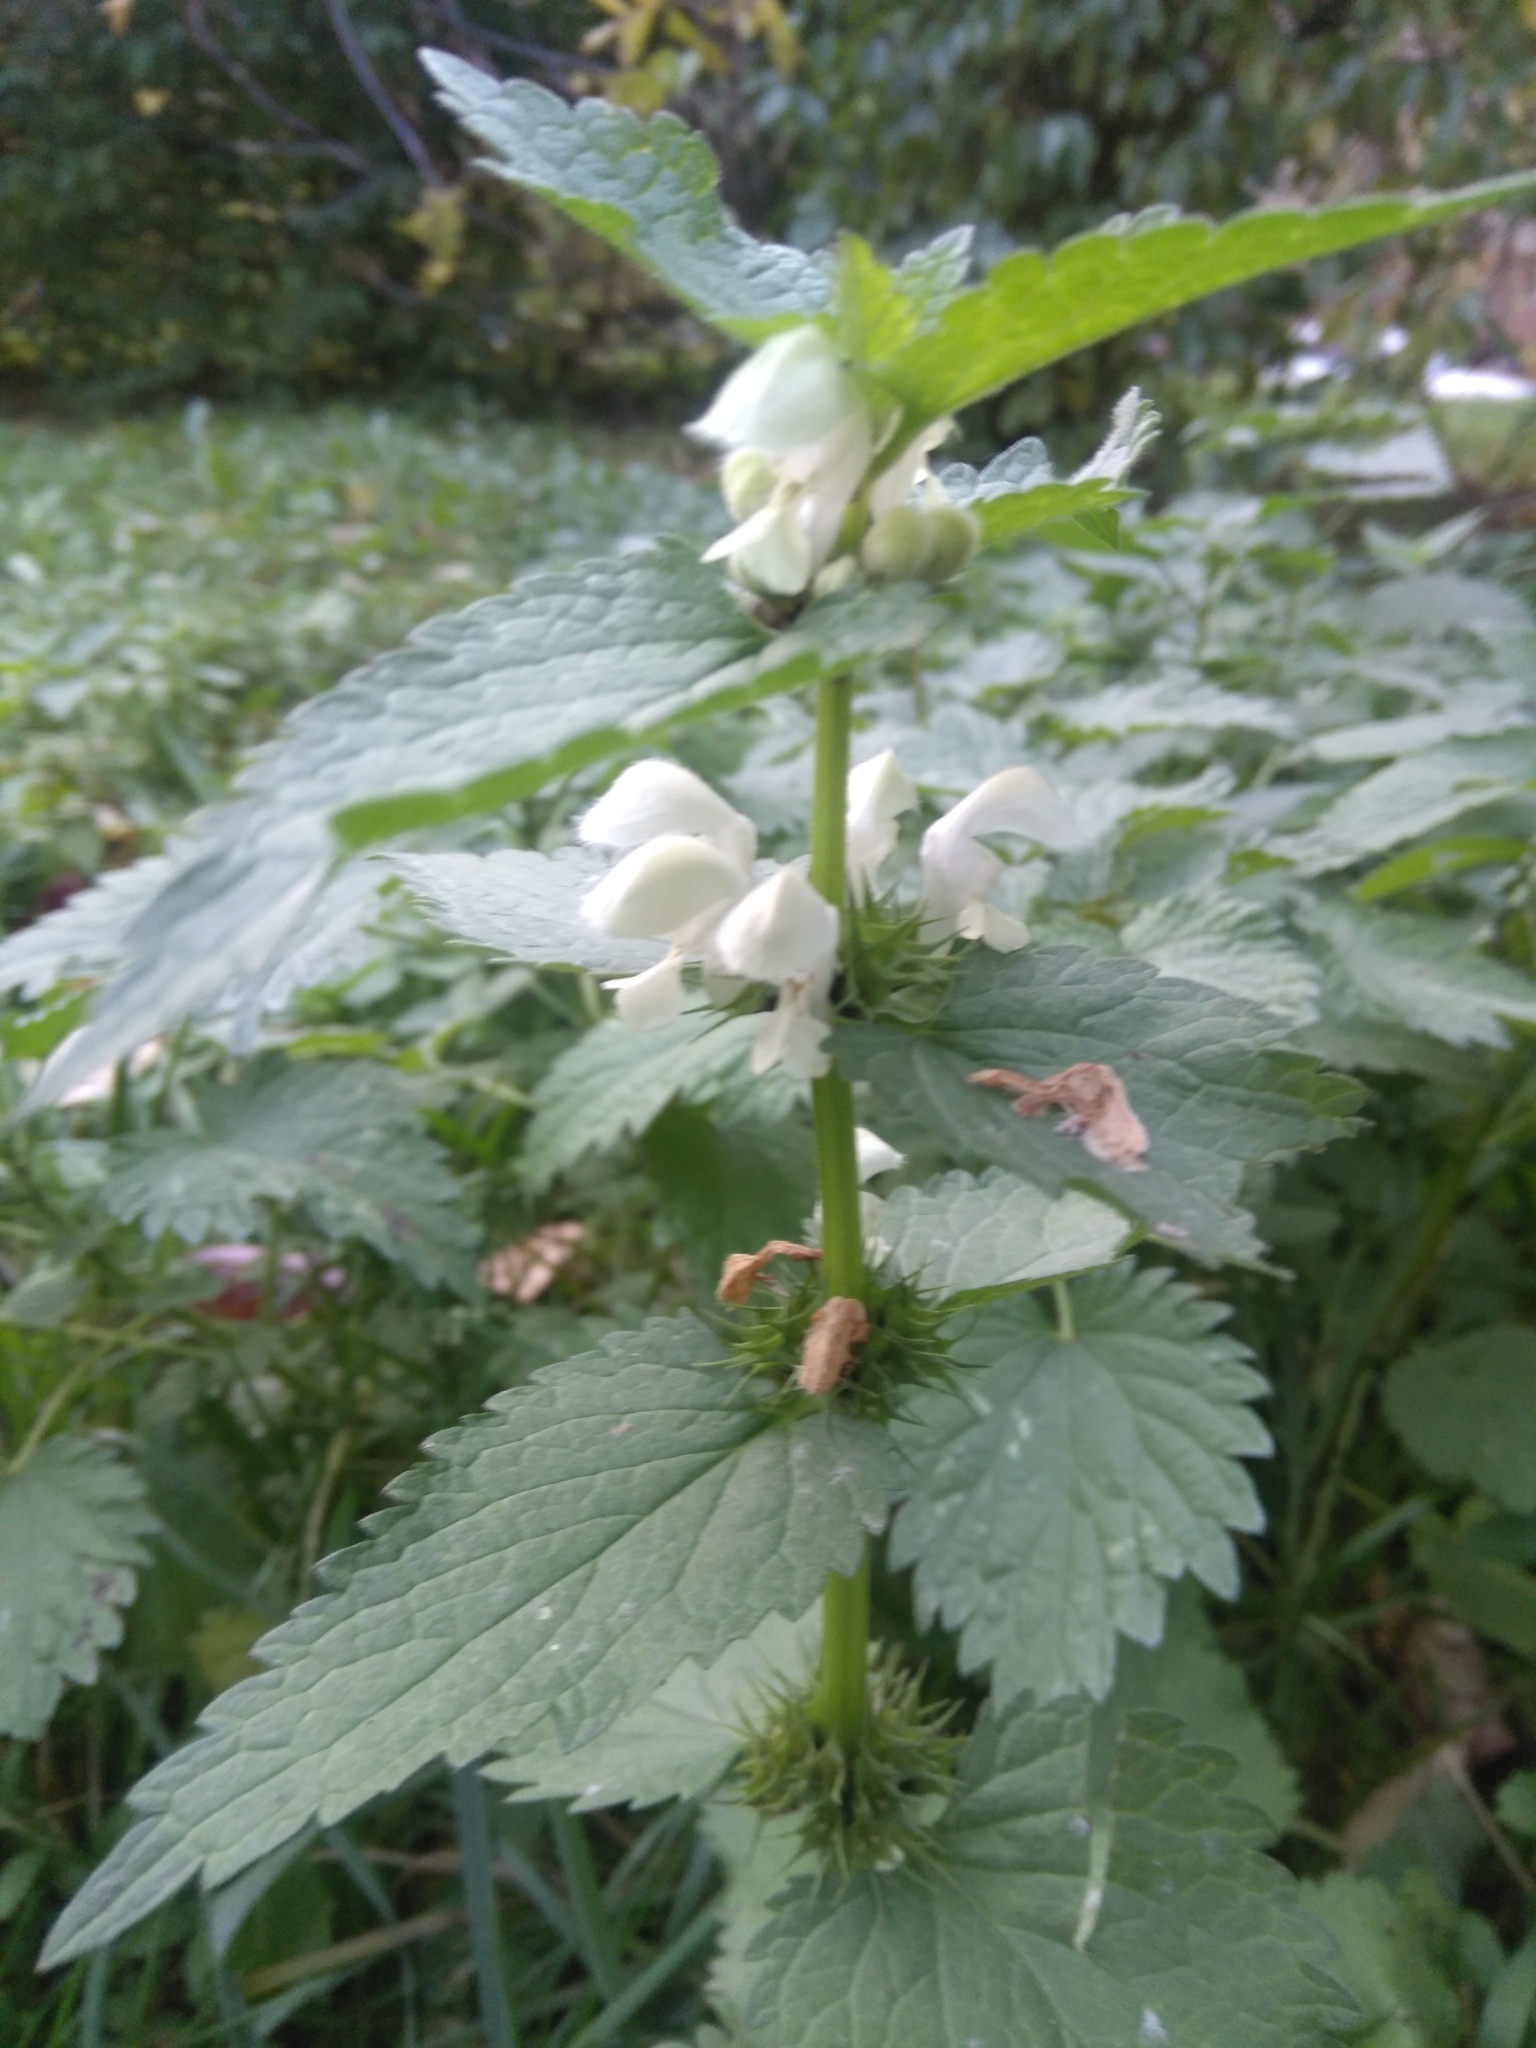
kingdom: Plantae
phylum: Tracheophyta
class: Magnoliopsida
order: Lamiales
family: Lamiaceae
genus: Lamium
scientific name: Lamium album
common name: White dead-nettle
